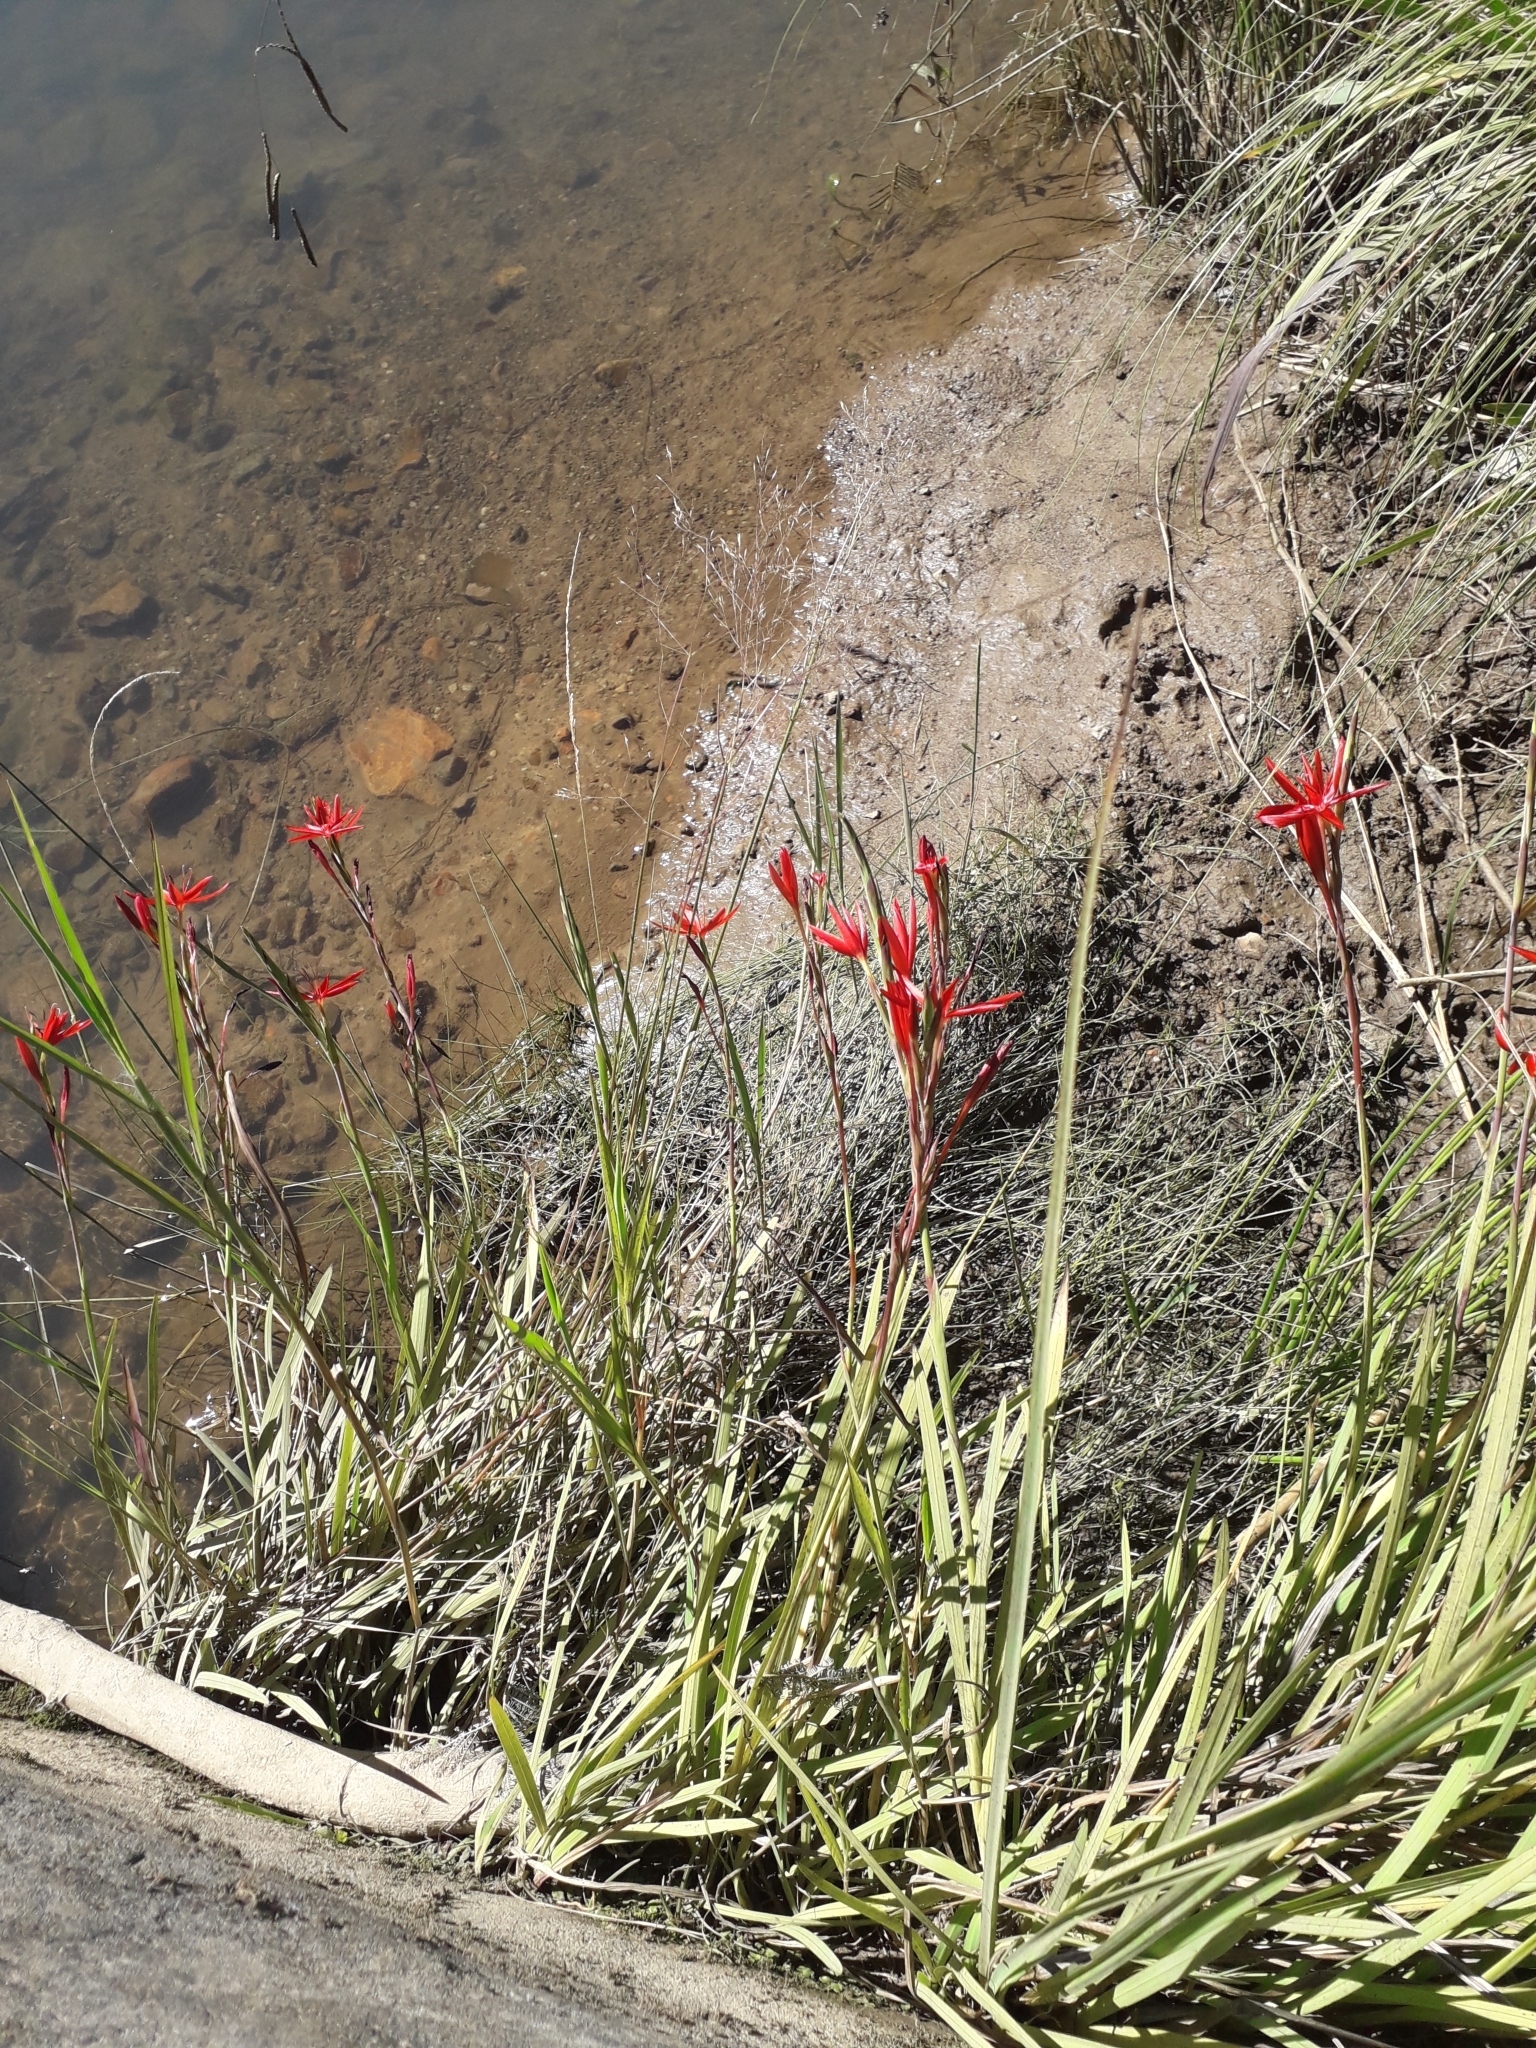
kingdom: Plantae
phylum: Tracheophyta
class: Liliopsida
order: Asparagales
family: Iridaceae
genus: Hesperantha
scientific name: Hesperantha coccinea
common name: River-lily
